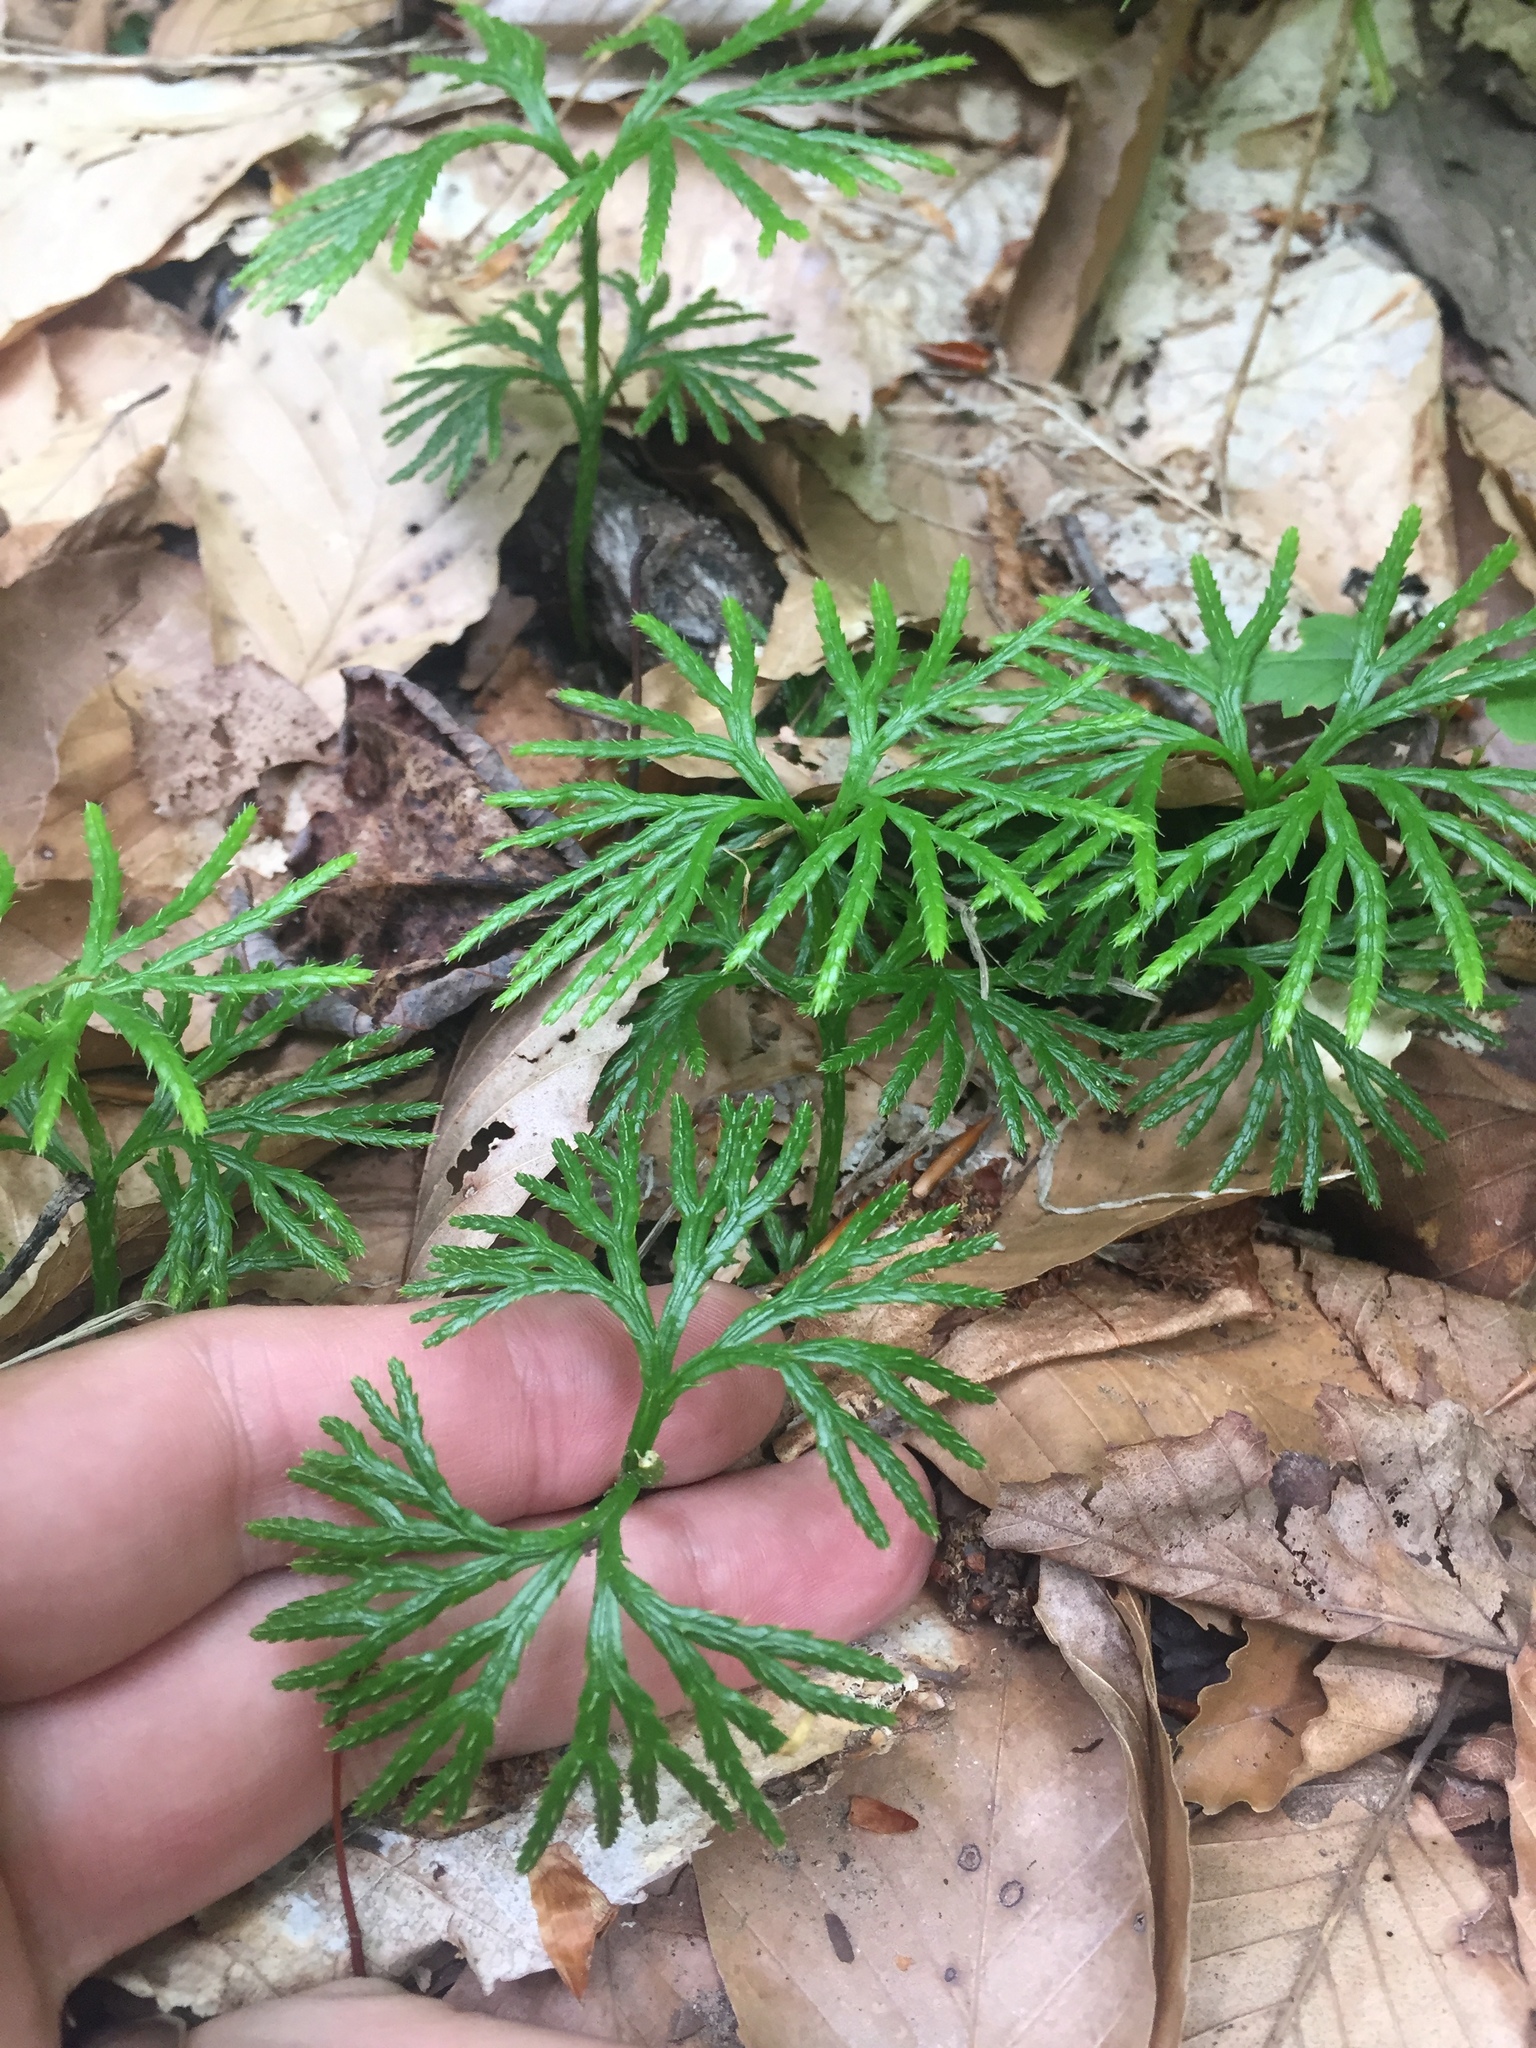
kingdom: Plantae
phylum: Tracheophyta
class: Lycopodiopsida
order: Lycopodiales
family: Lycopodiaceae
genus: Diphasiastrum
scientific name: Diphasiastrum digitatum
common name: Southern running-pine
